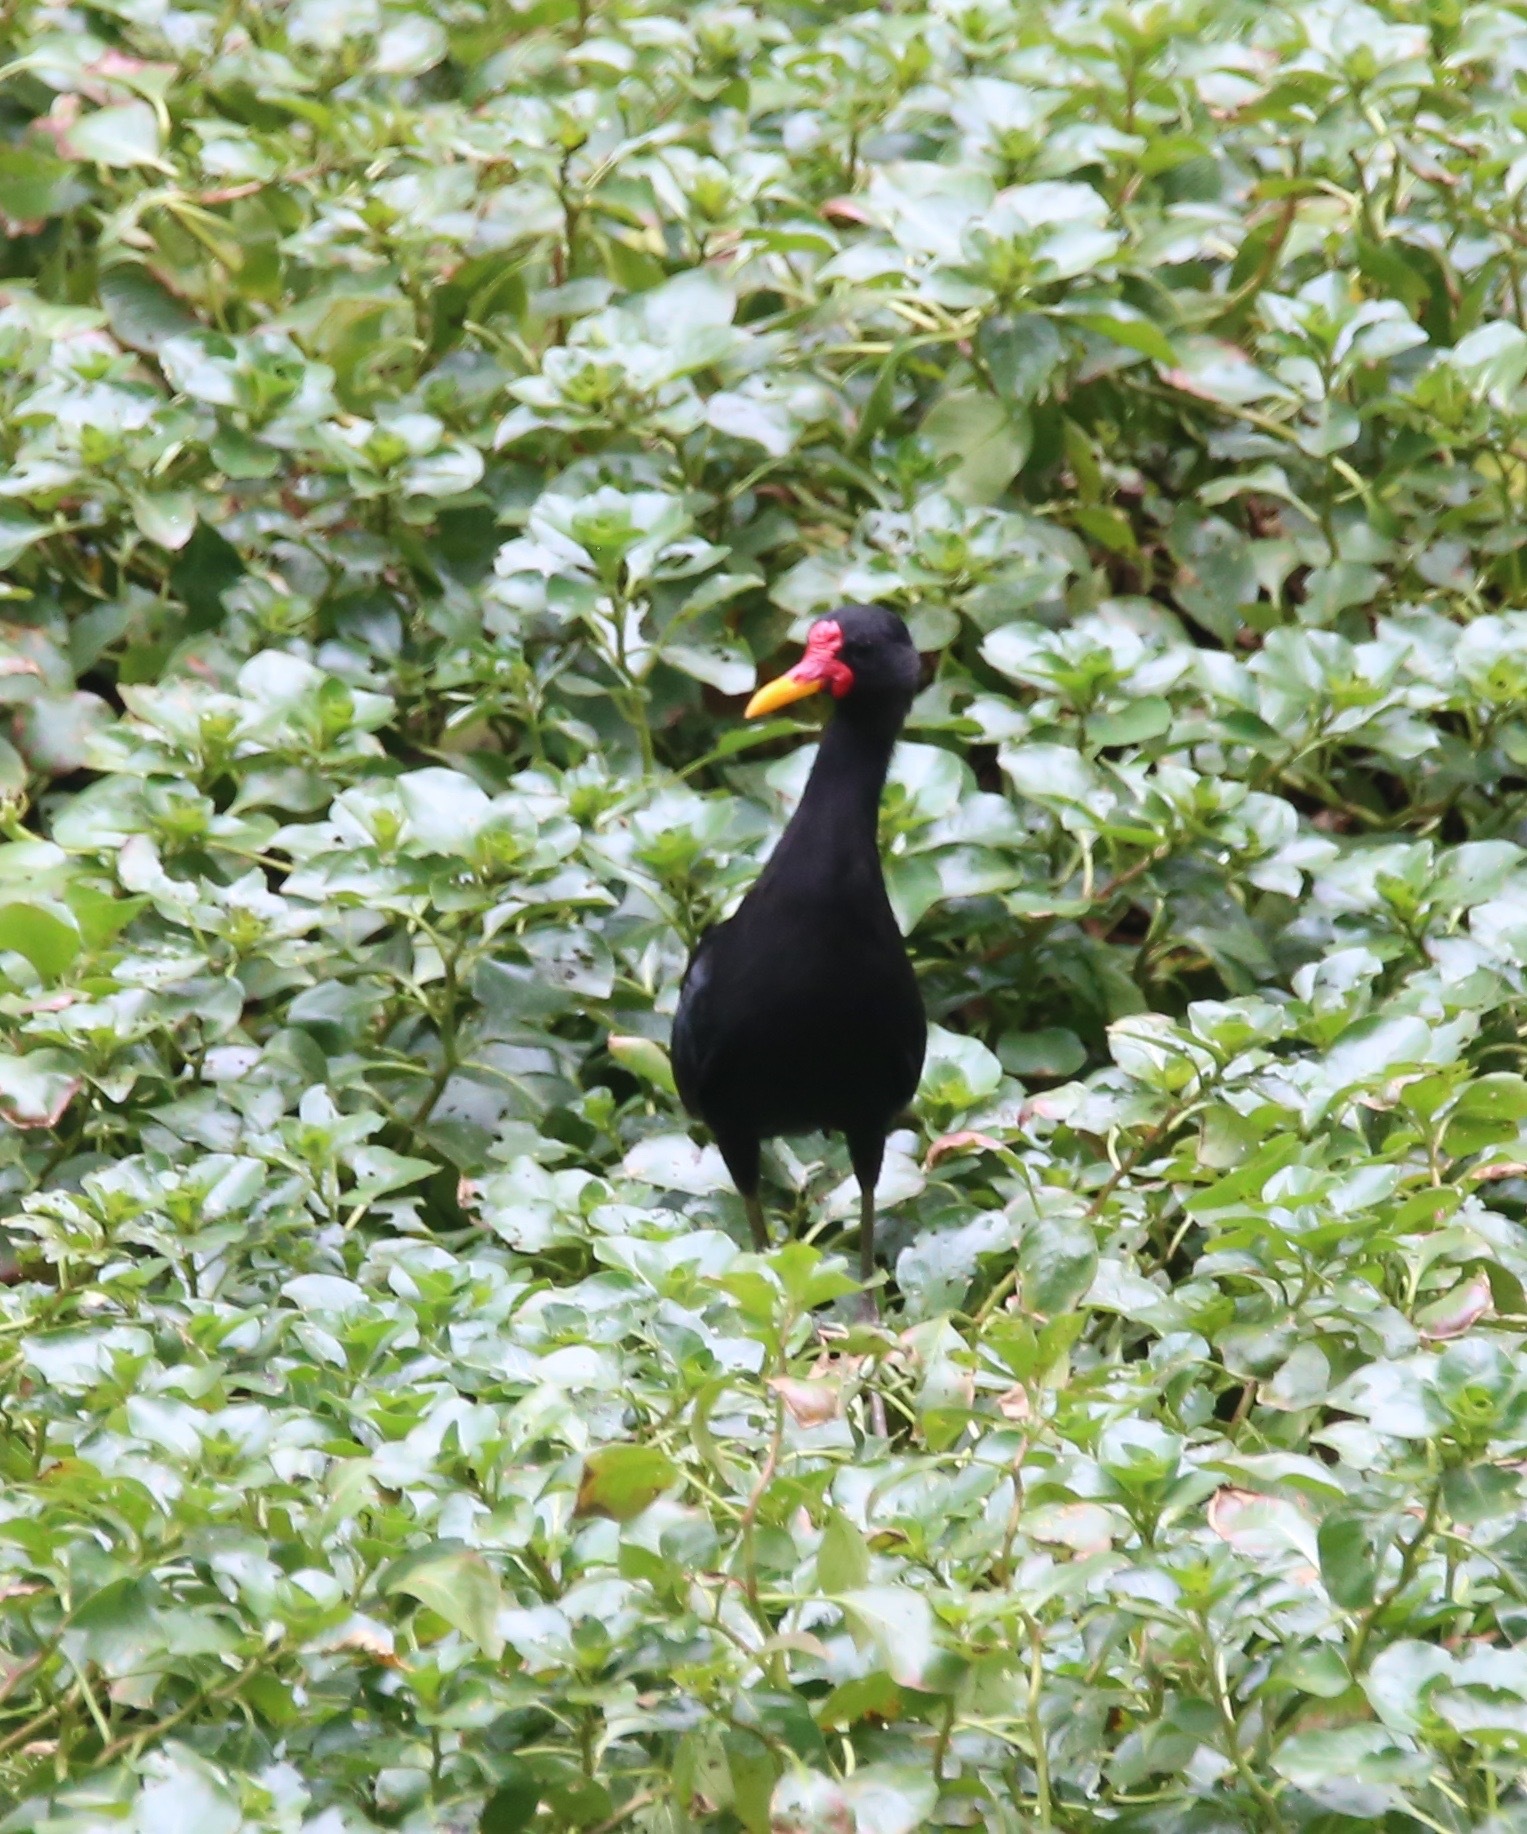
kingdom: Animalia
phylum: Chordata
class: Aves
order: Charadriiformes
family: Jacanidae
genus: Jacana
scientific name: Jacana jacana
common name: Wattled jacana
